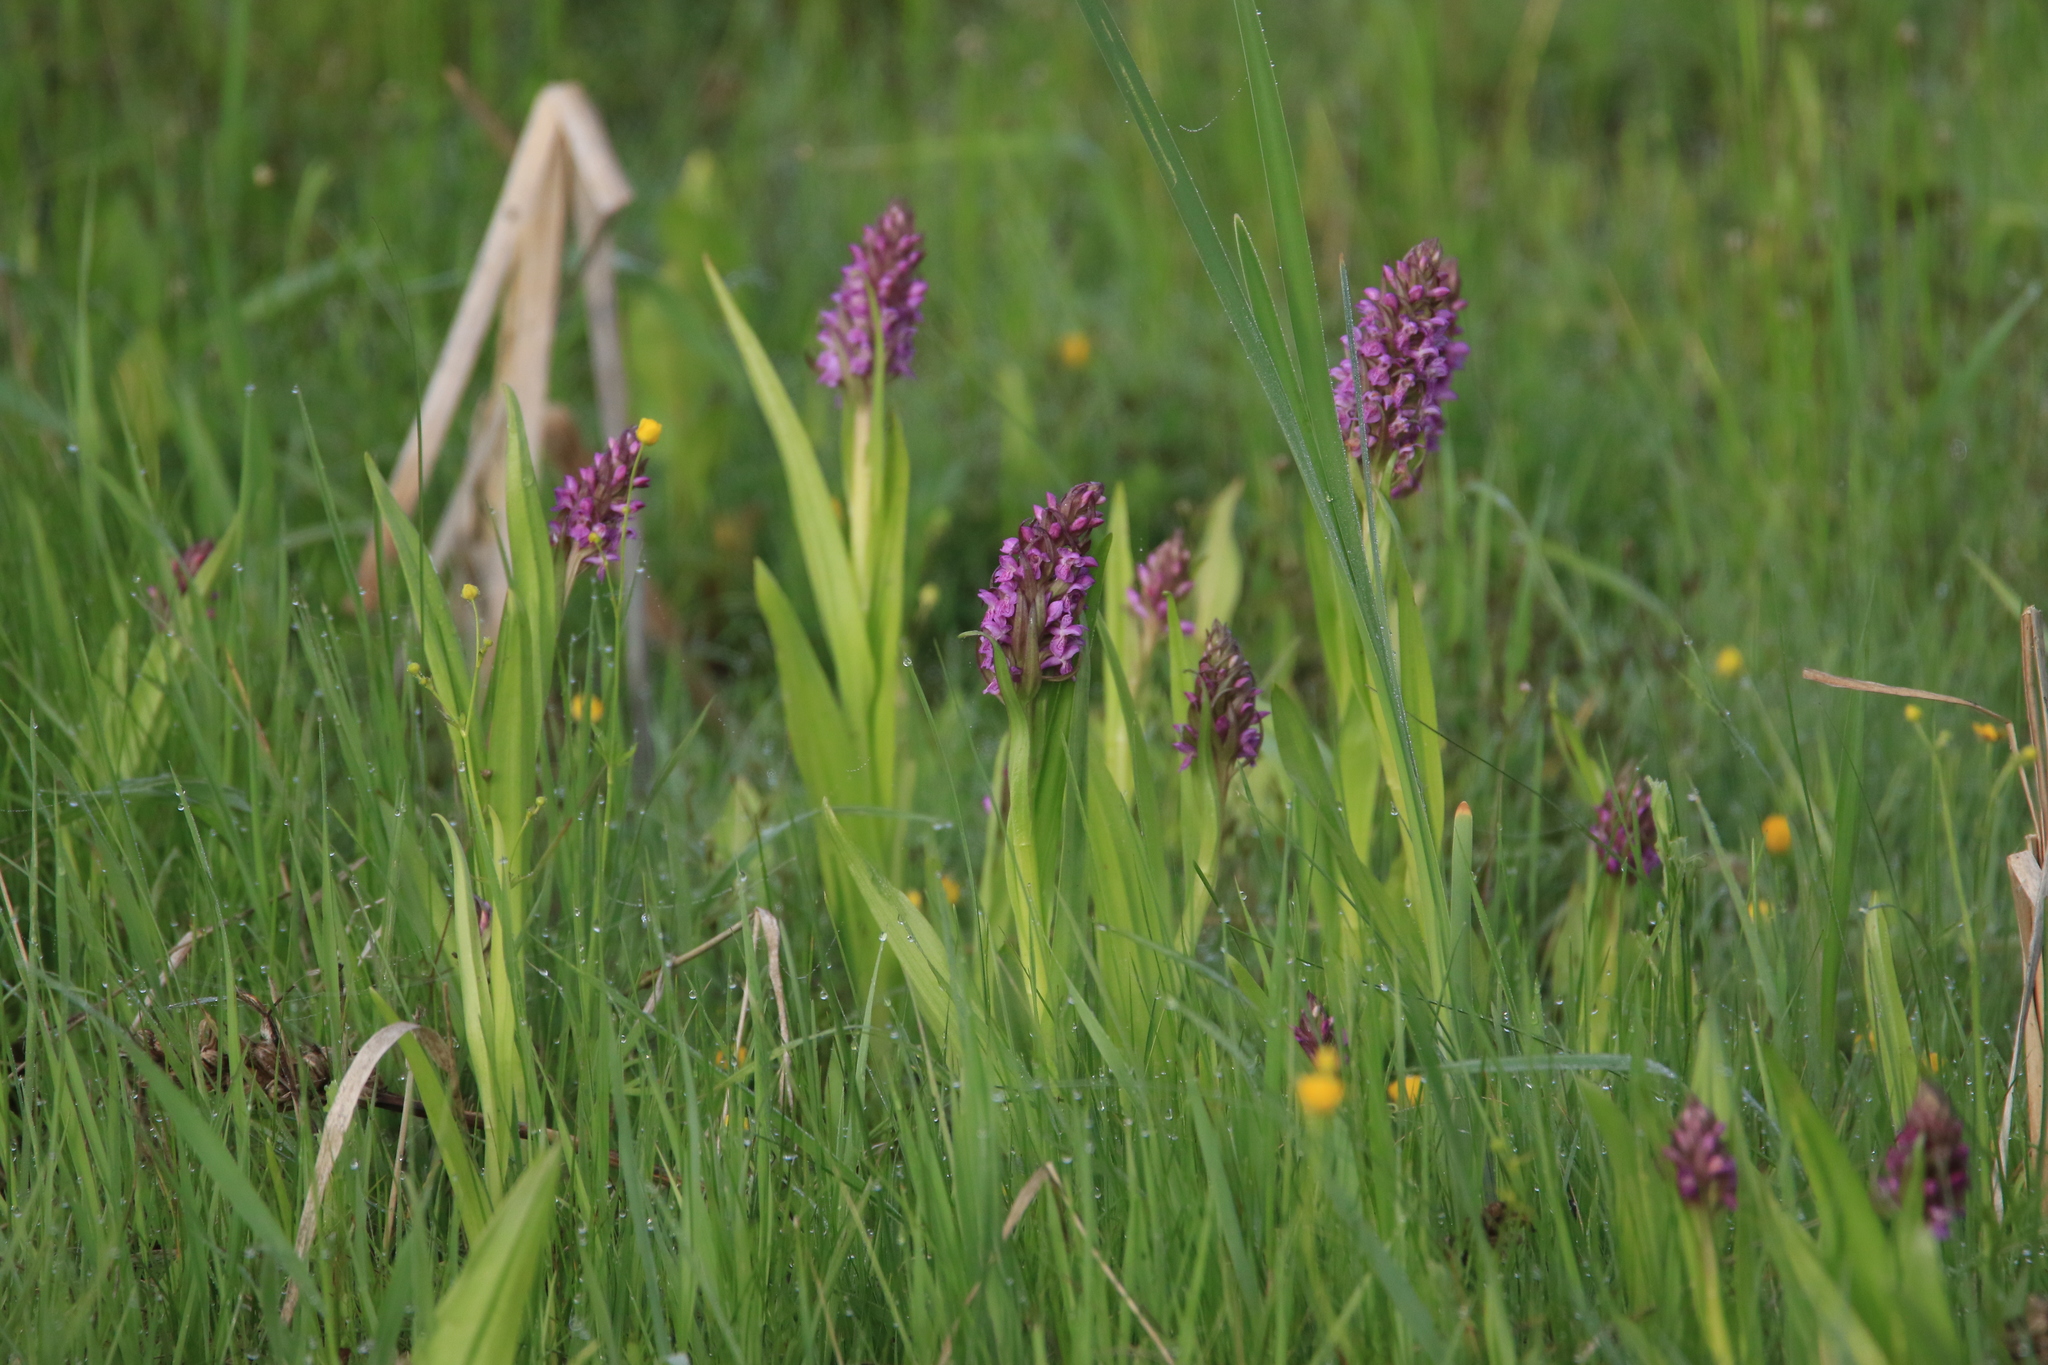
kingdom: Plantae
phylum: Tracheophyta
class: Liliopsida
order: Asparagales
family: Orchidaceae
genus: Dactylorhiza
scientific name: Dactylorhiza incarnata
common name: Early marsh-orchid
